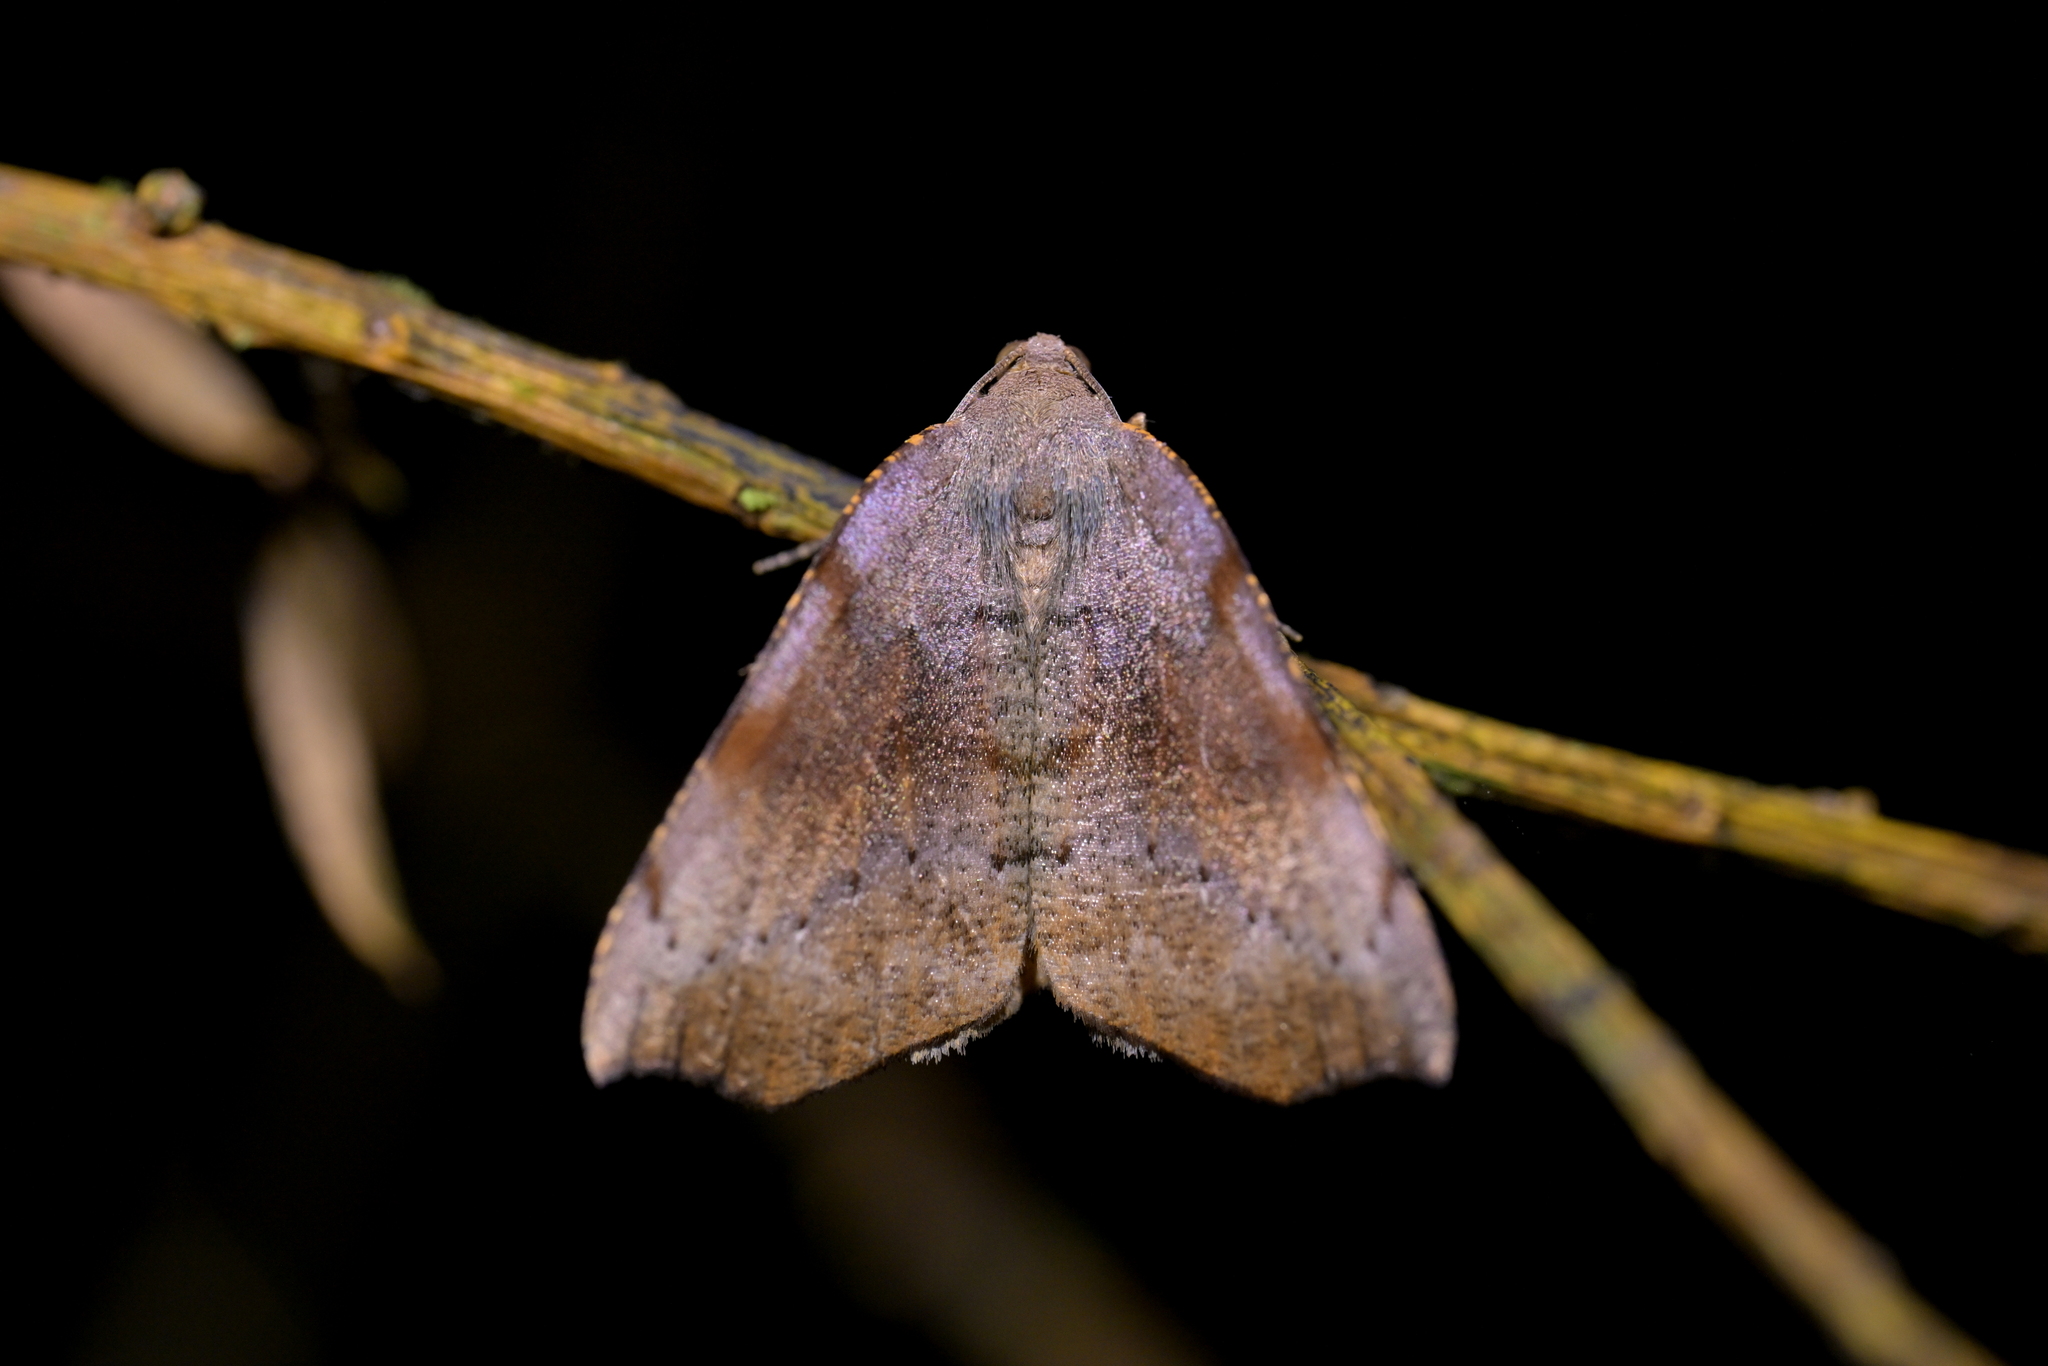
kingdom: Animalia
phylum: Arthropoda
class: Insecta
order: Lepidoptera
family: Geometridae
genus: Sestra
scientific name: Sestra flexata
